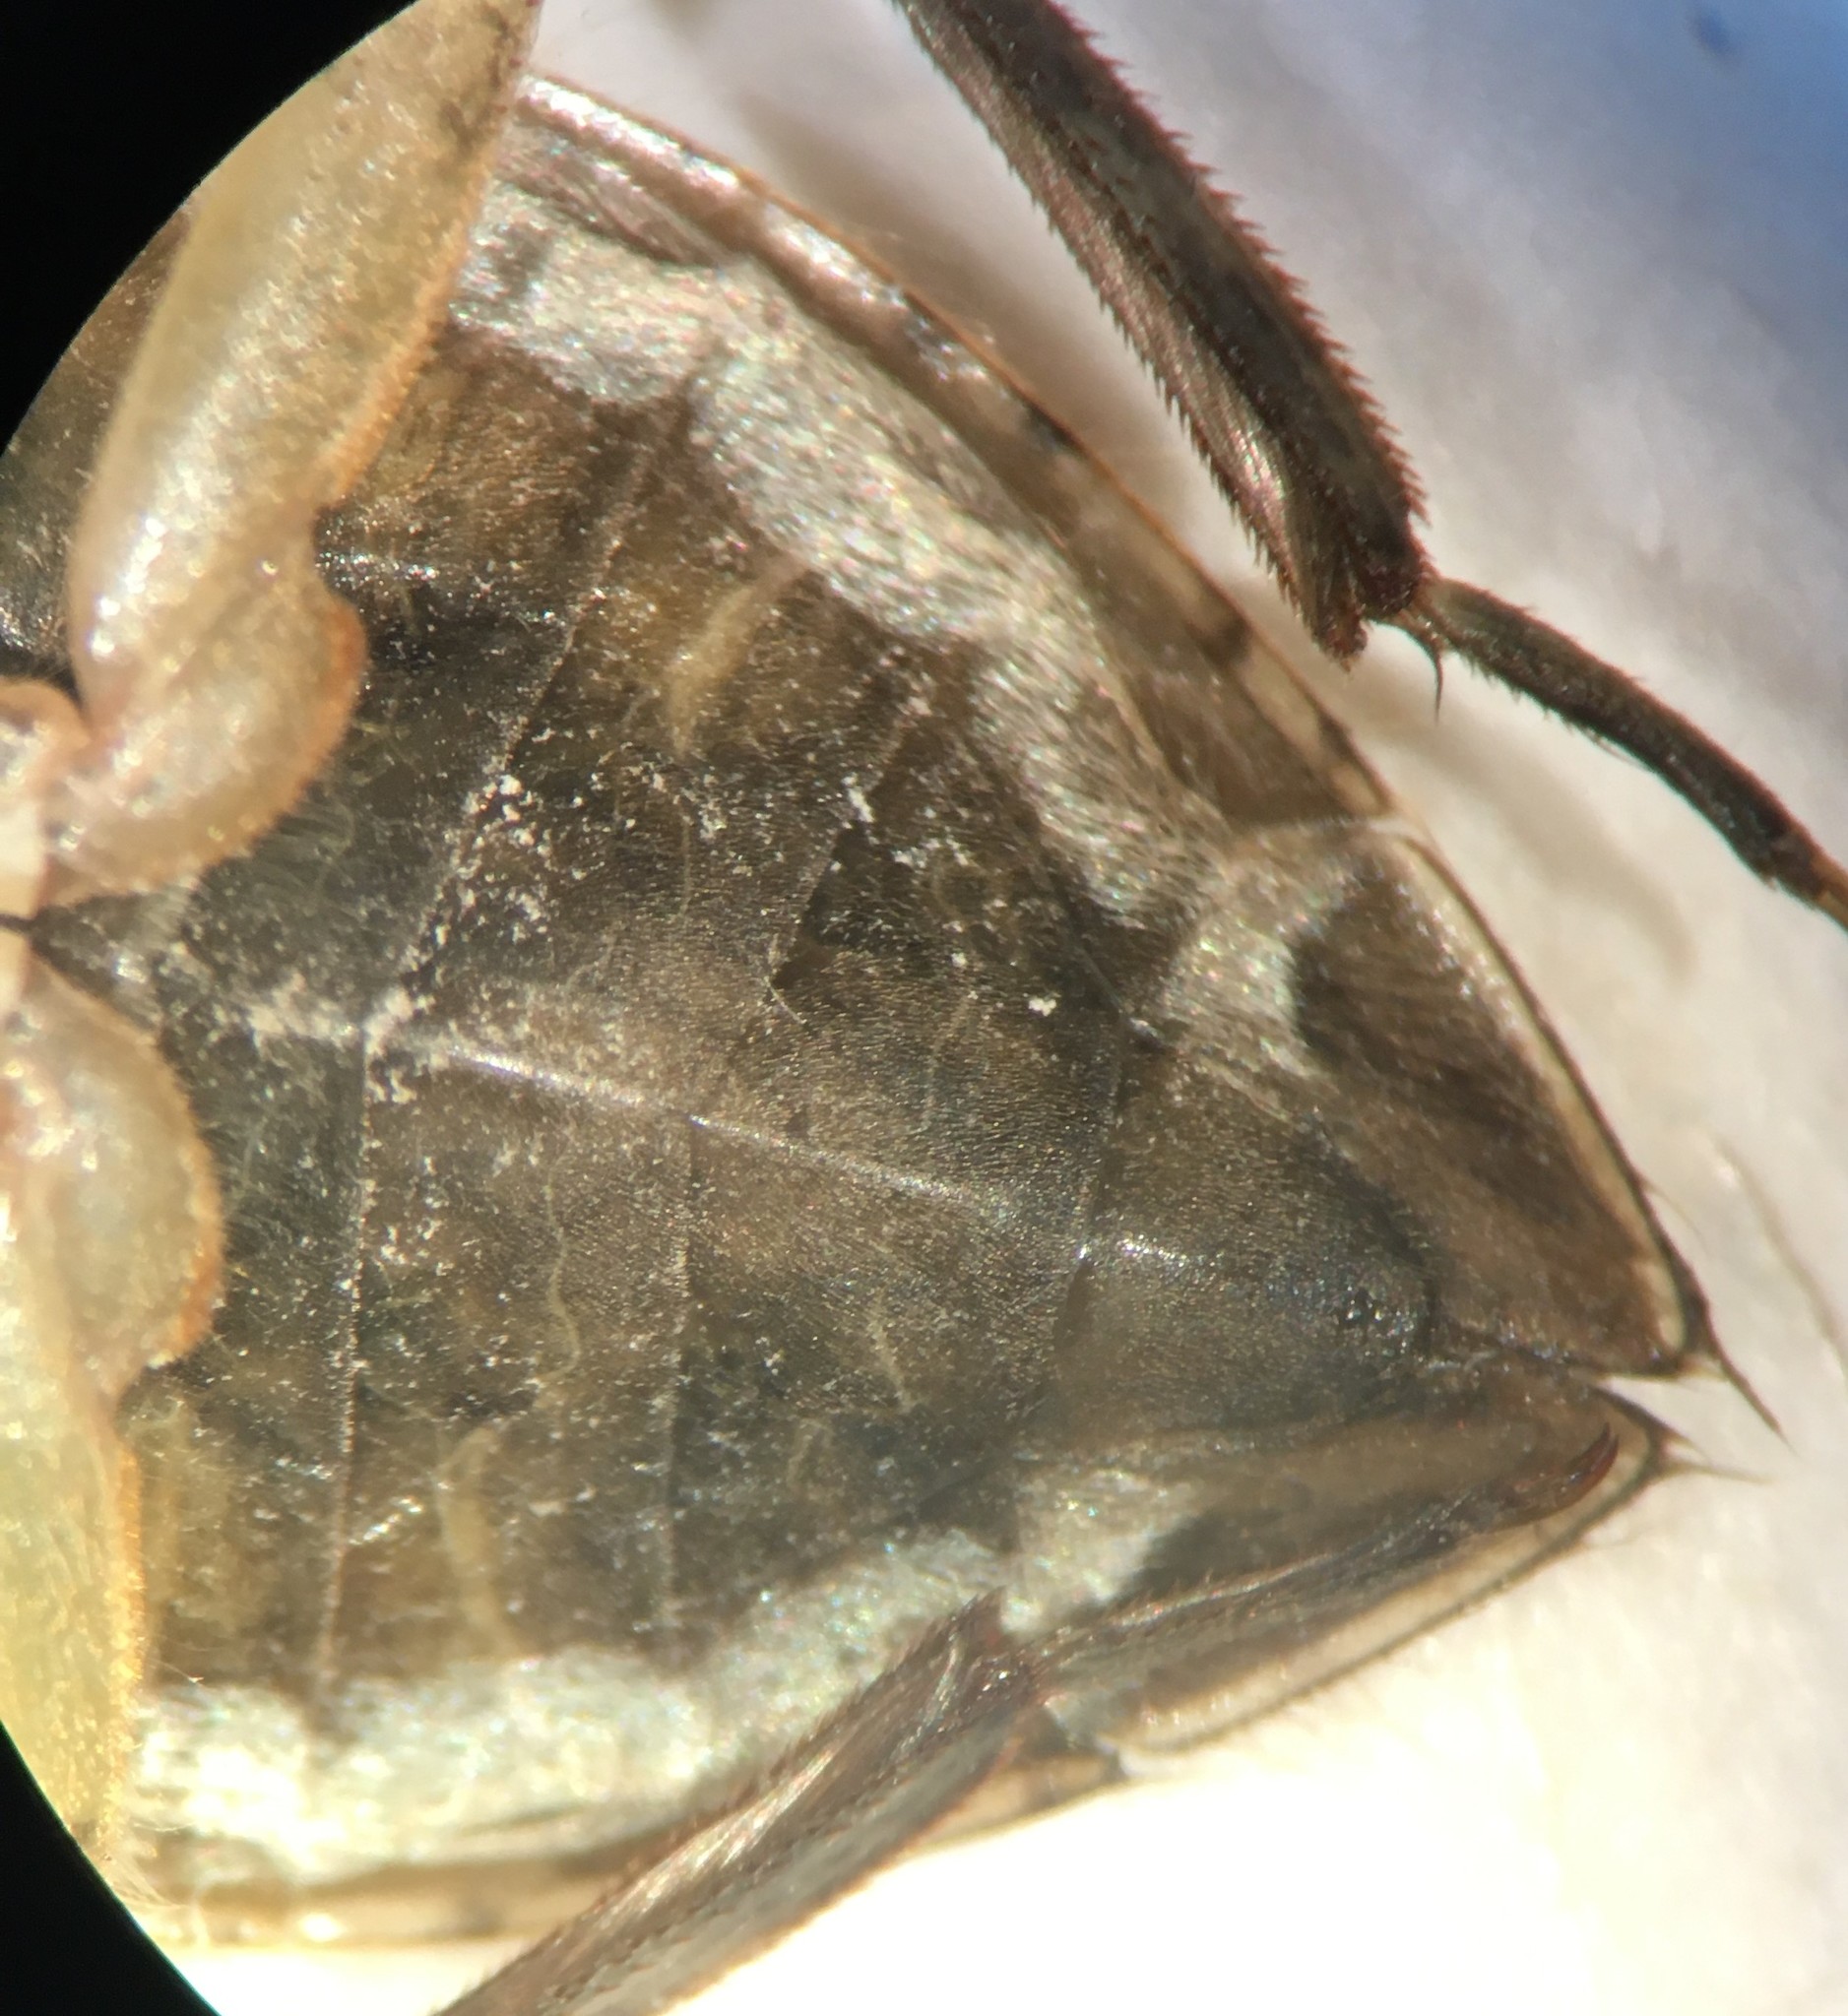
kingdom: Animalia
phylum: Arthropoda
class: Insecta
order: Hemiptera
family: Belostomatidae
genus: Belostoma
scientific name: Belostoma minor
